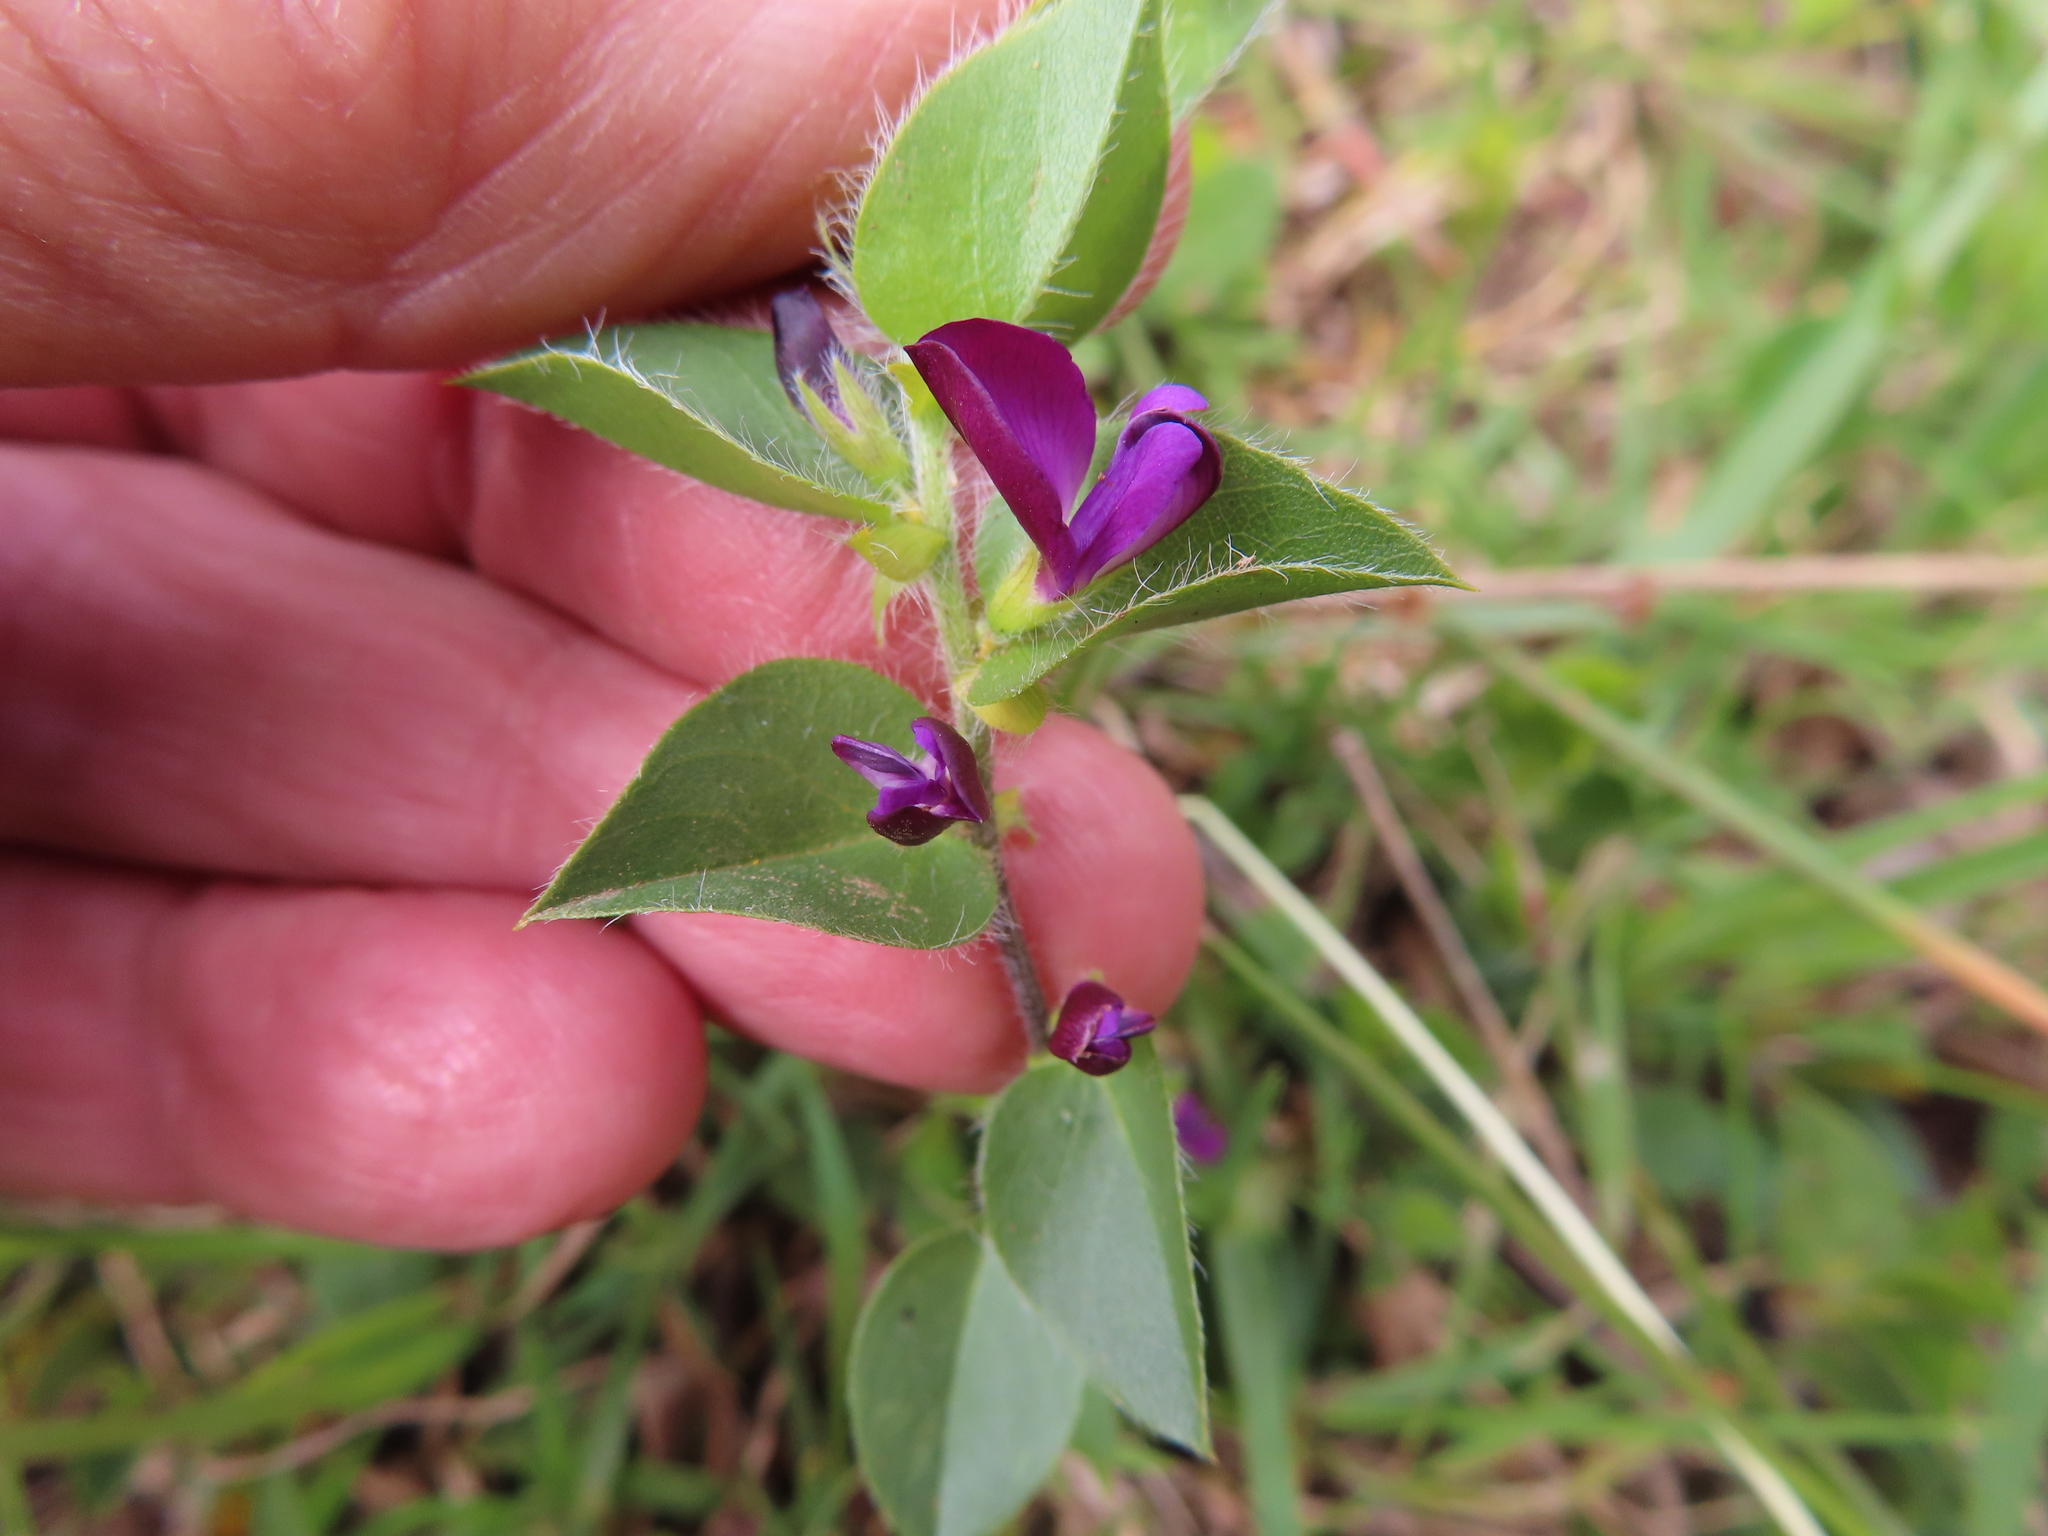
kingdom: Plantae
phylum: Tracheophyta
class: Magnoliopsida
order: Fabales
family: Fabaceae
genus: Psoralea
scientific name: Psoralea imbricata
